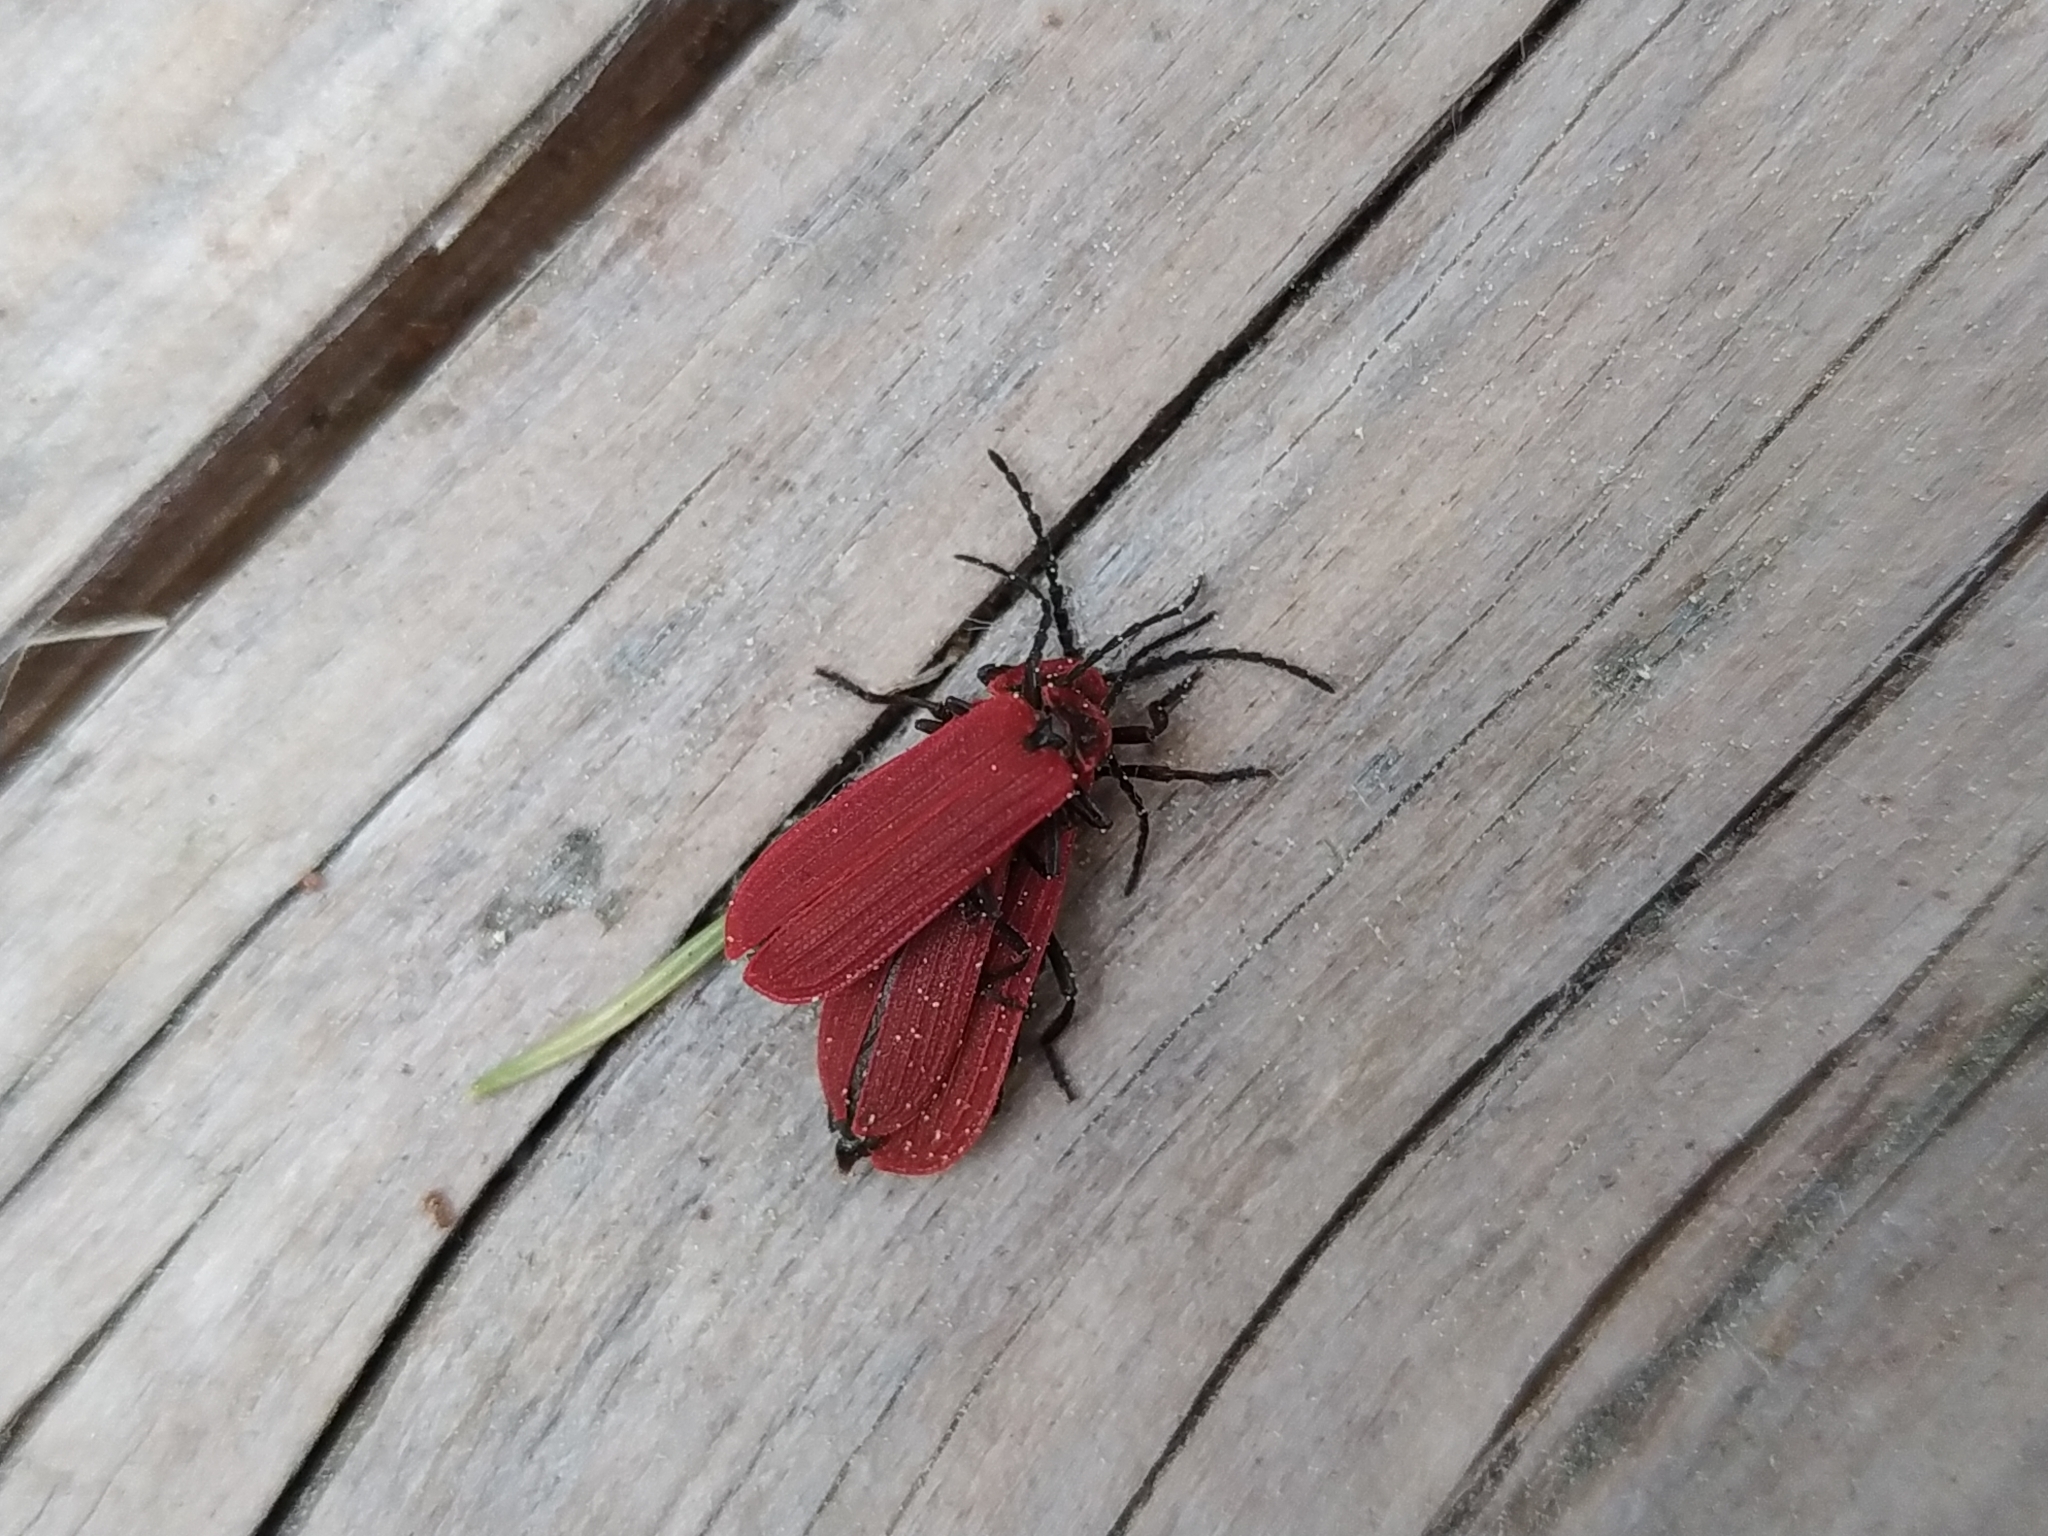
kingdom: Animalia
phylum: Arthropoda
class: Insecta
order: Coleoptera
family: Lycidae
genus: Dictyoptera
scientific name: Dictyoptera aurora
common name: Golden net-winged beetle
